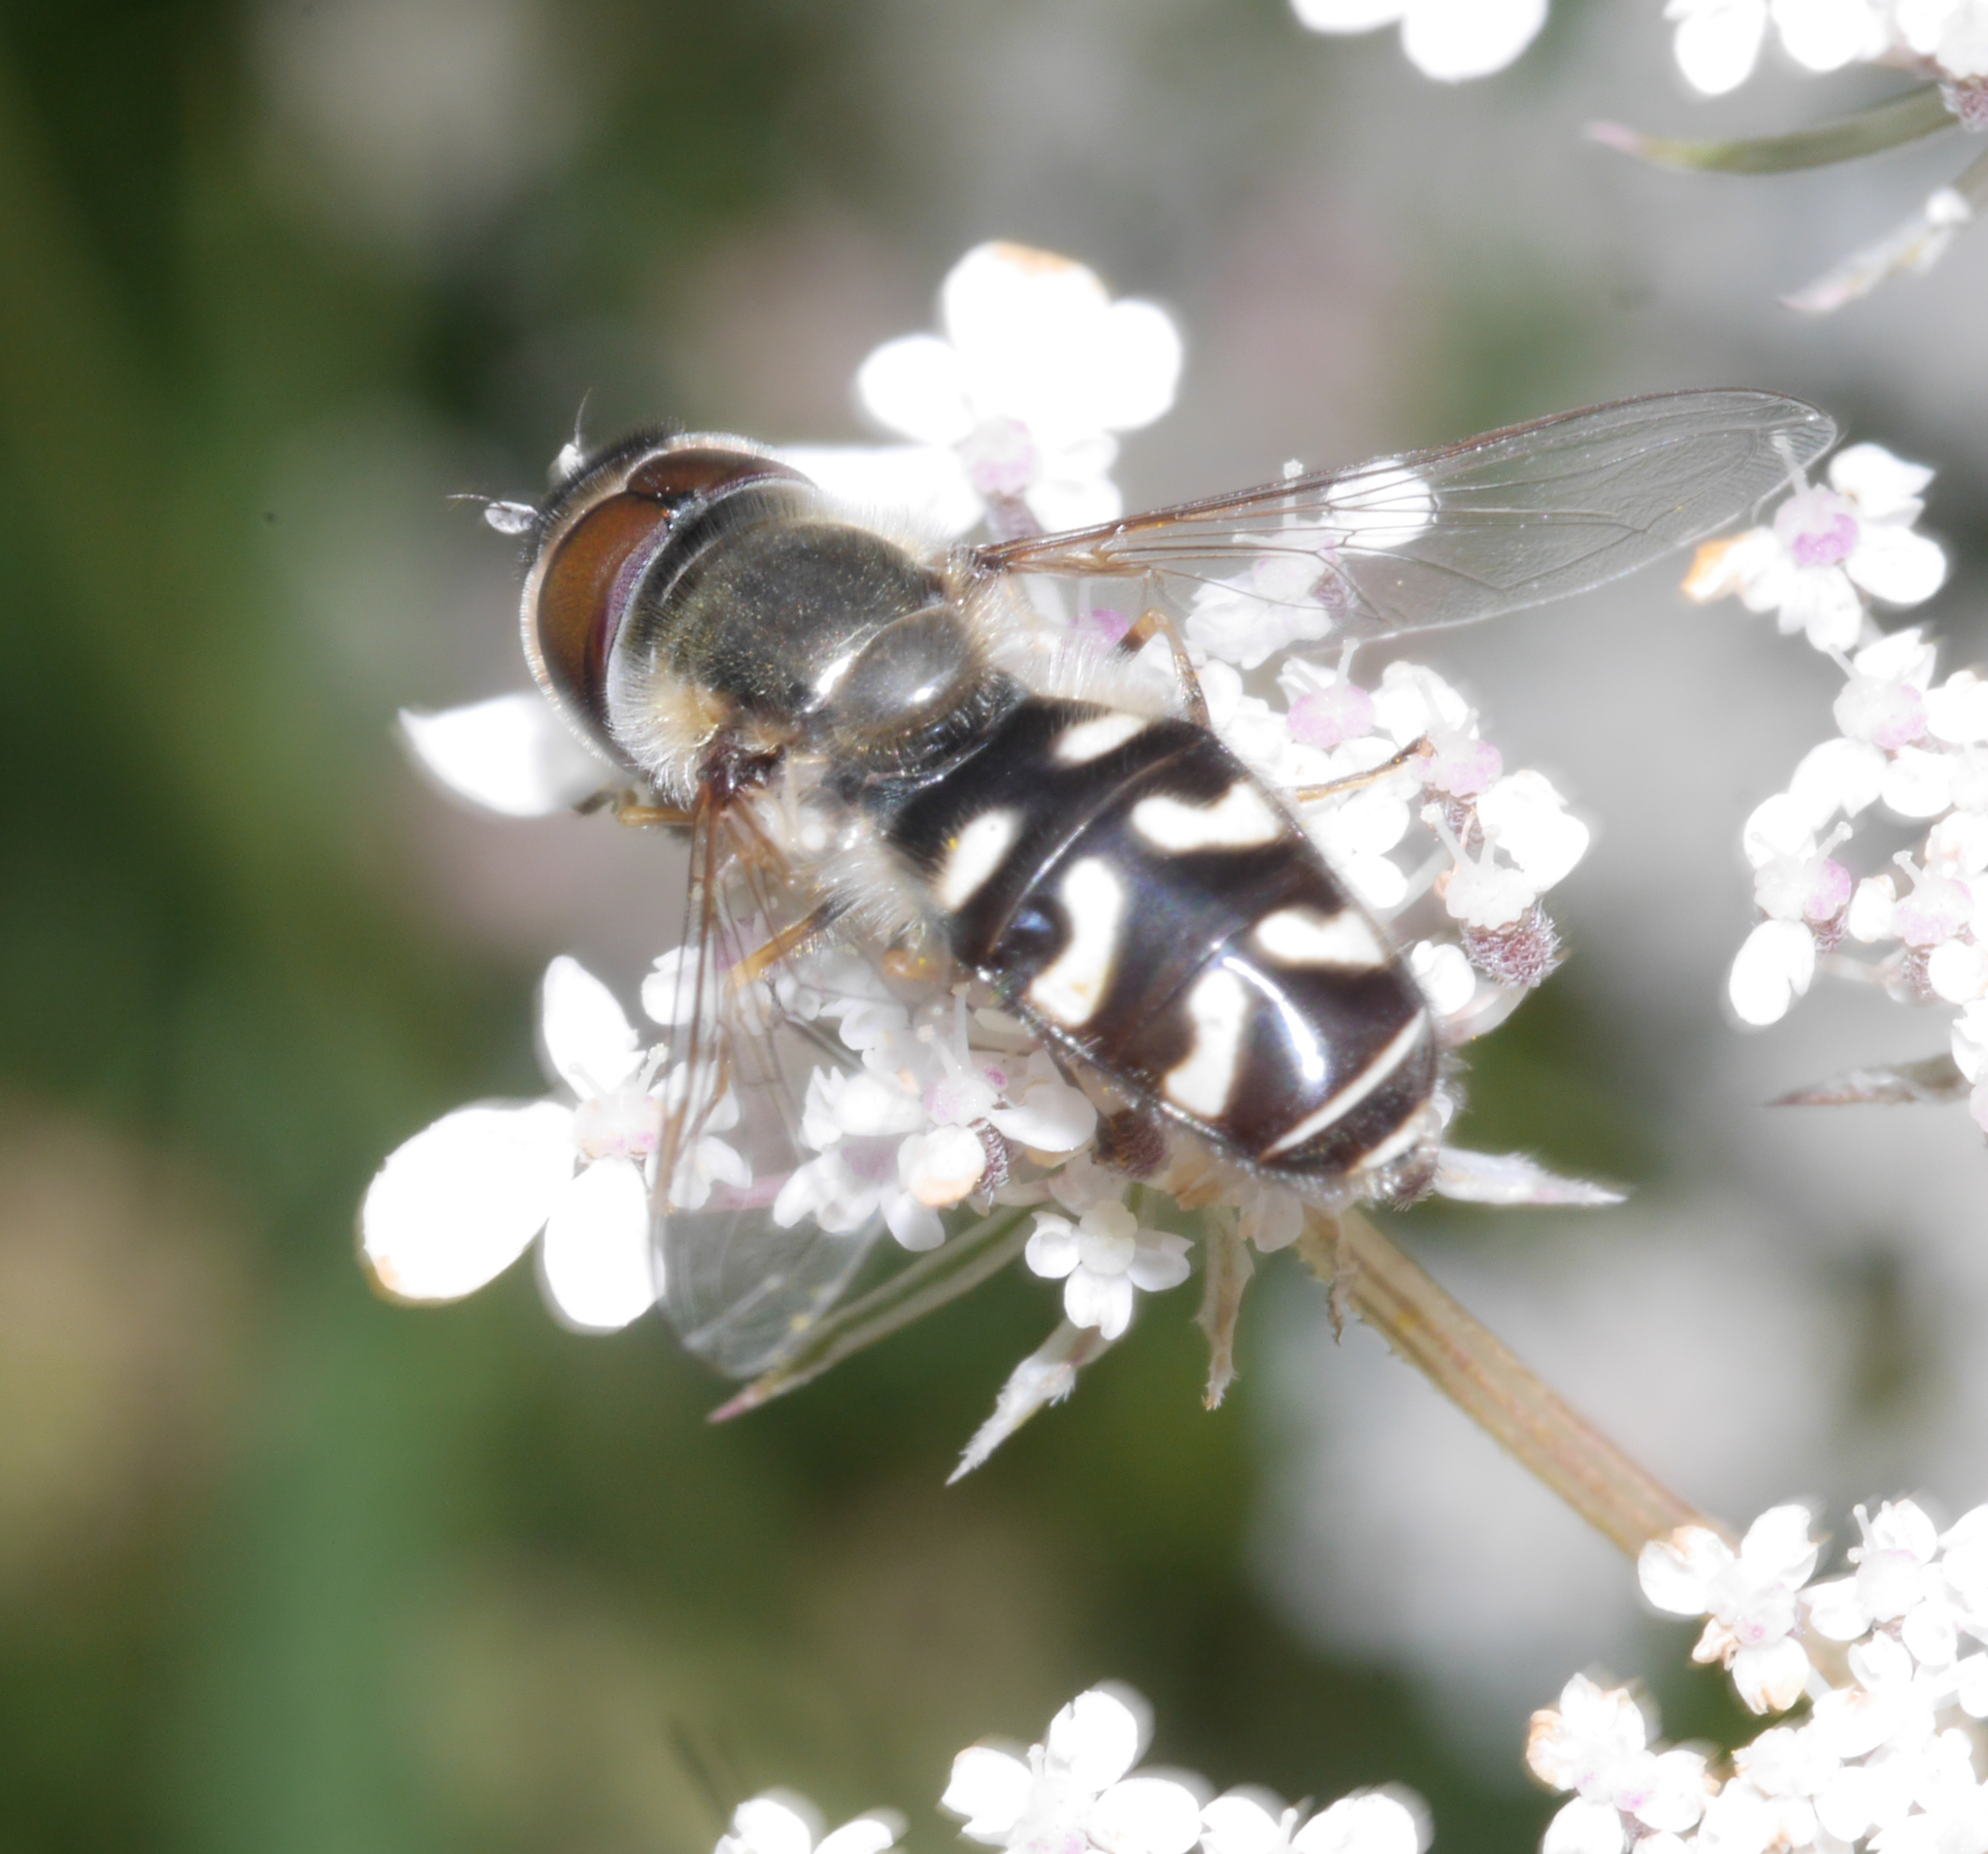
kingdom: Animalia
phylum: Arthropoda
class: Insecta
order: Diptera
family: Syrphidae
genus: Scaeva
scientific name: Scaeva pyrastri
